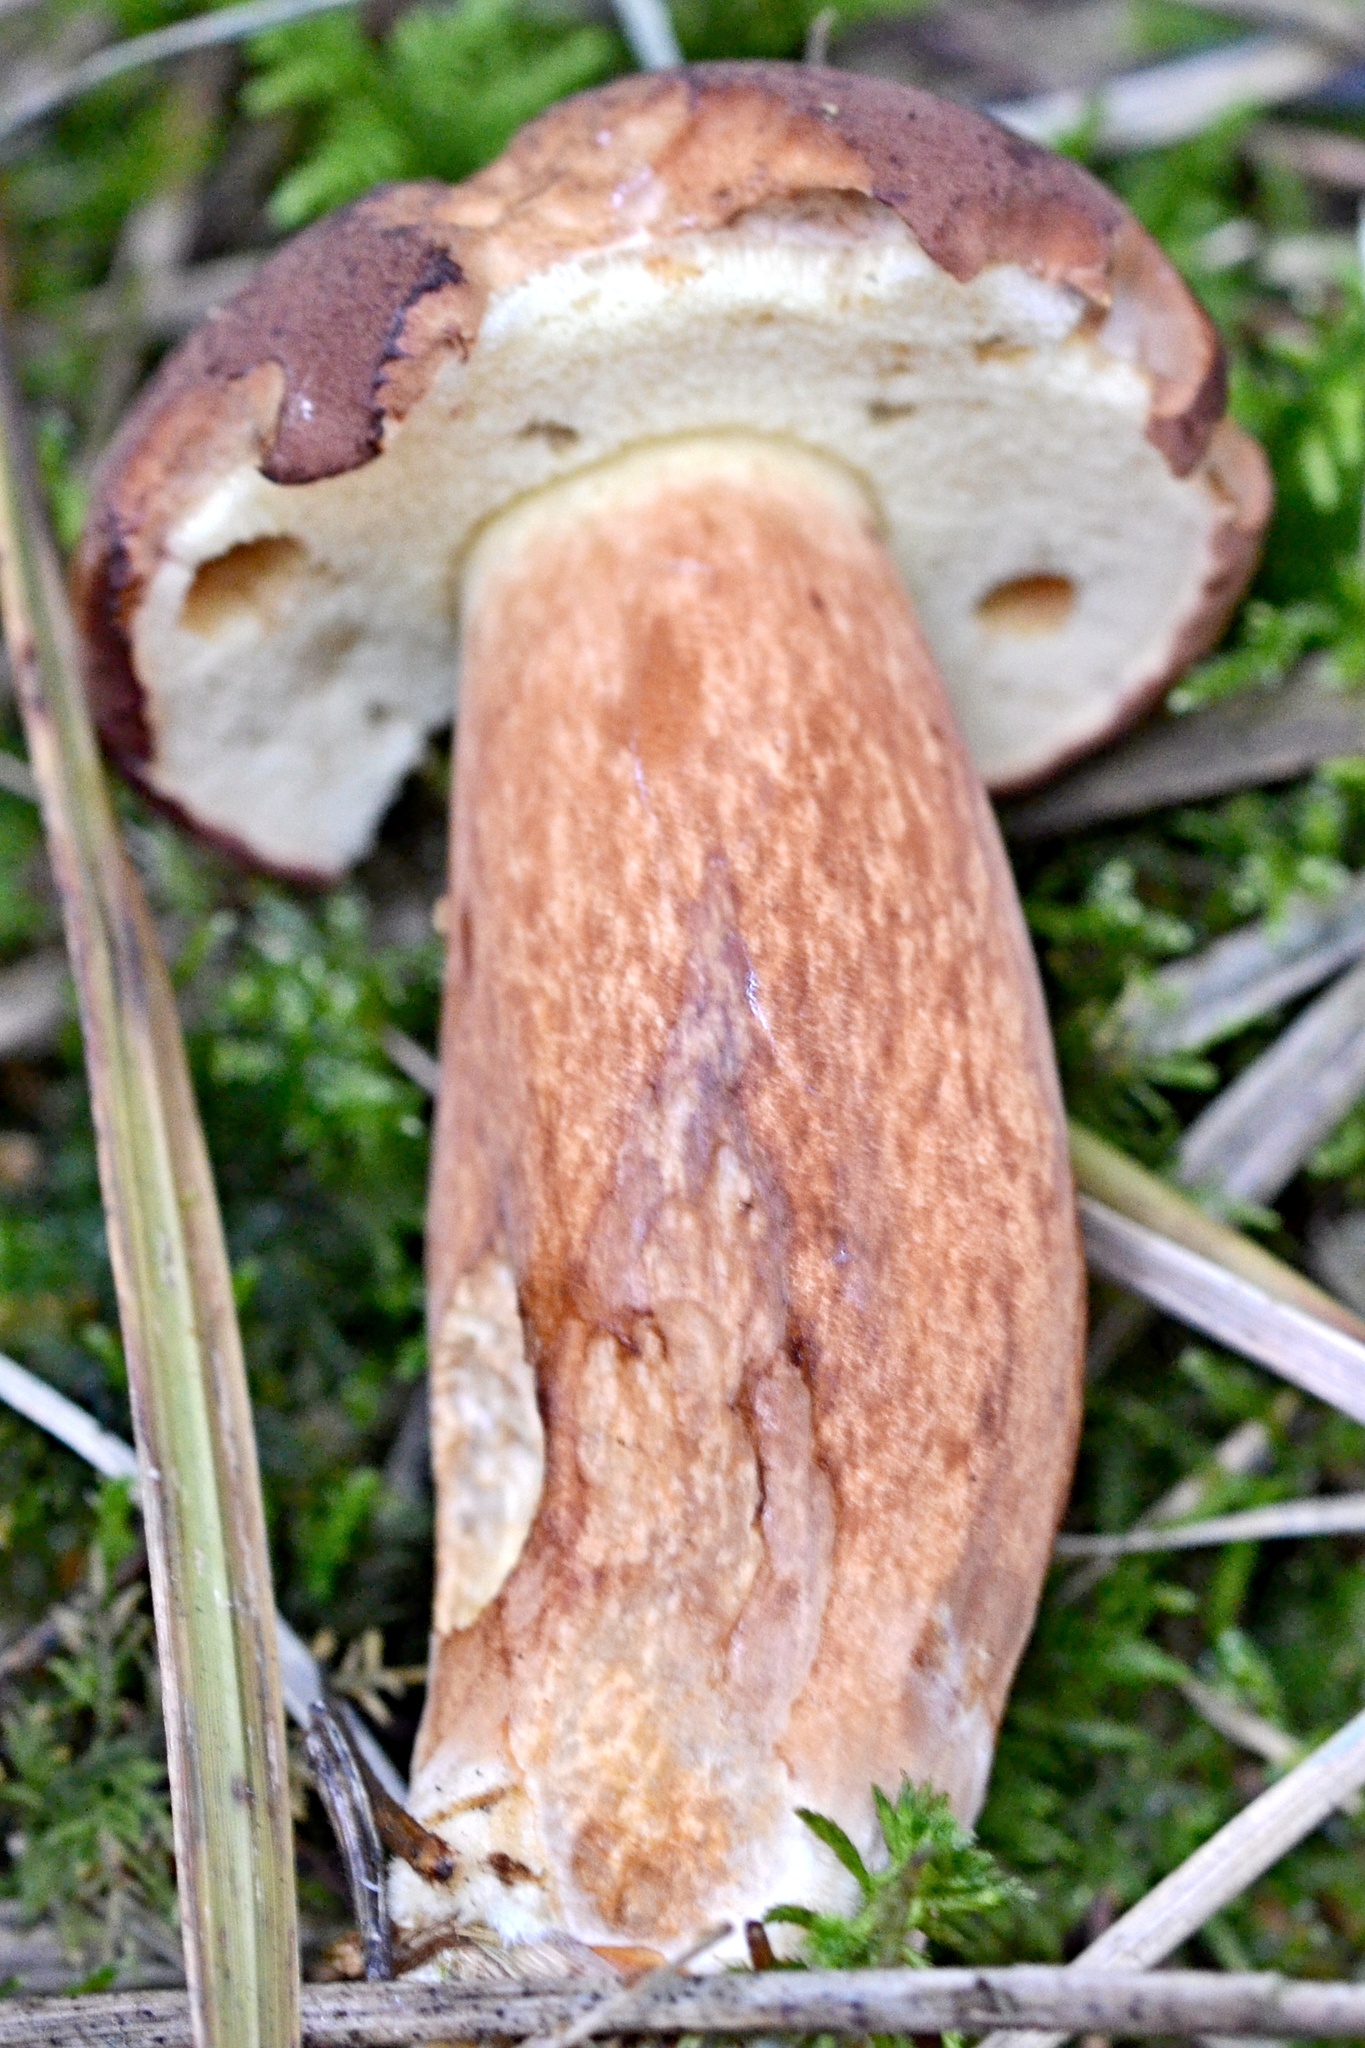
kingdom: Fungi
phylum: Basidiomycota
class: Agaricomycetes
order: Boletales
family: Boletaceae
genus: Imleria
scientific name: Imleria badia
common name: Bay bolete
